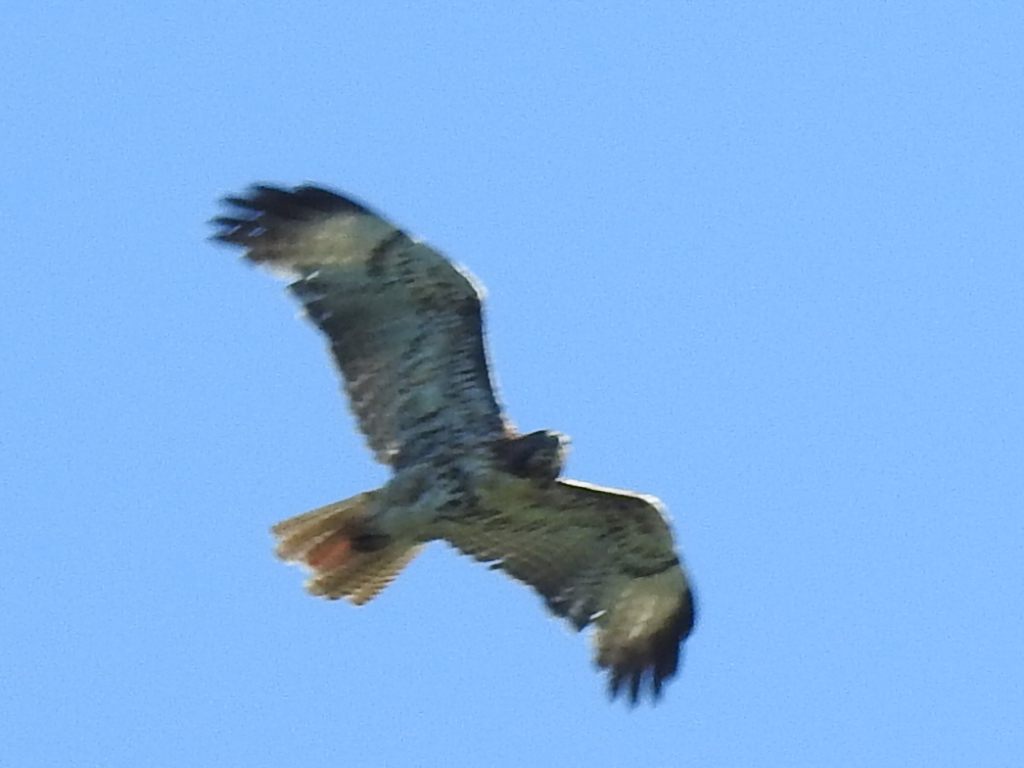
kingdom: Animalia
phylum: Chordata
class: Aves
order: Accipitriformes
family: Accipitridae
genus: Buteo
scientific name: Buteo jamaicensis
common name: Red-tailed hawk
